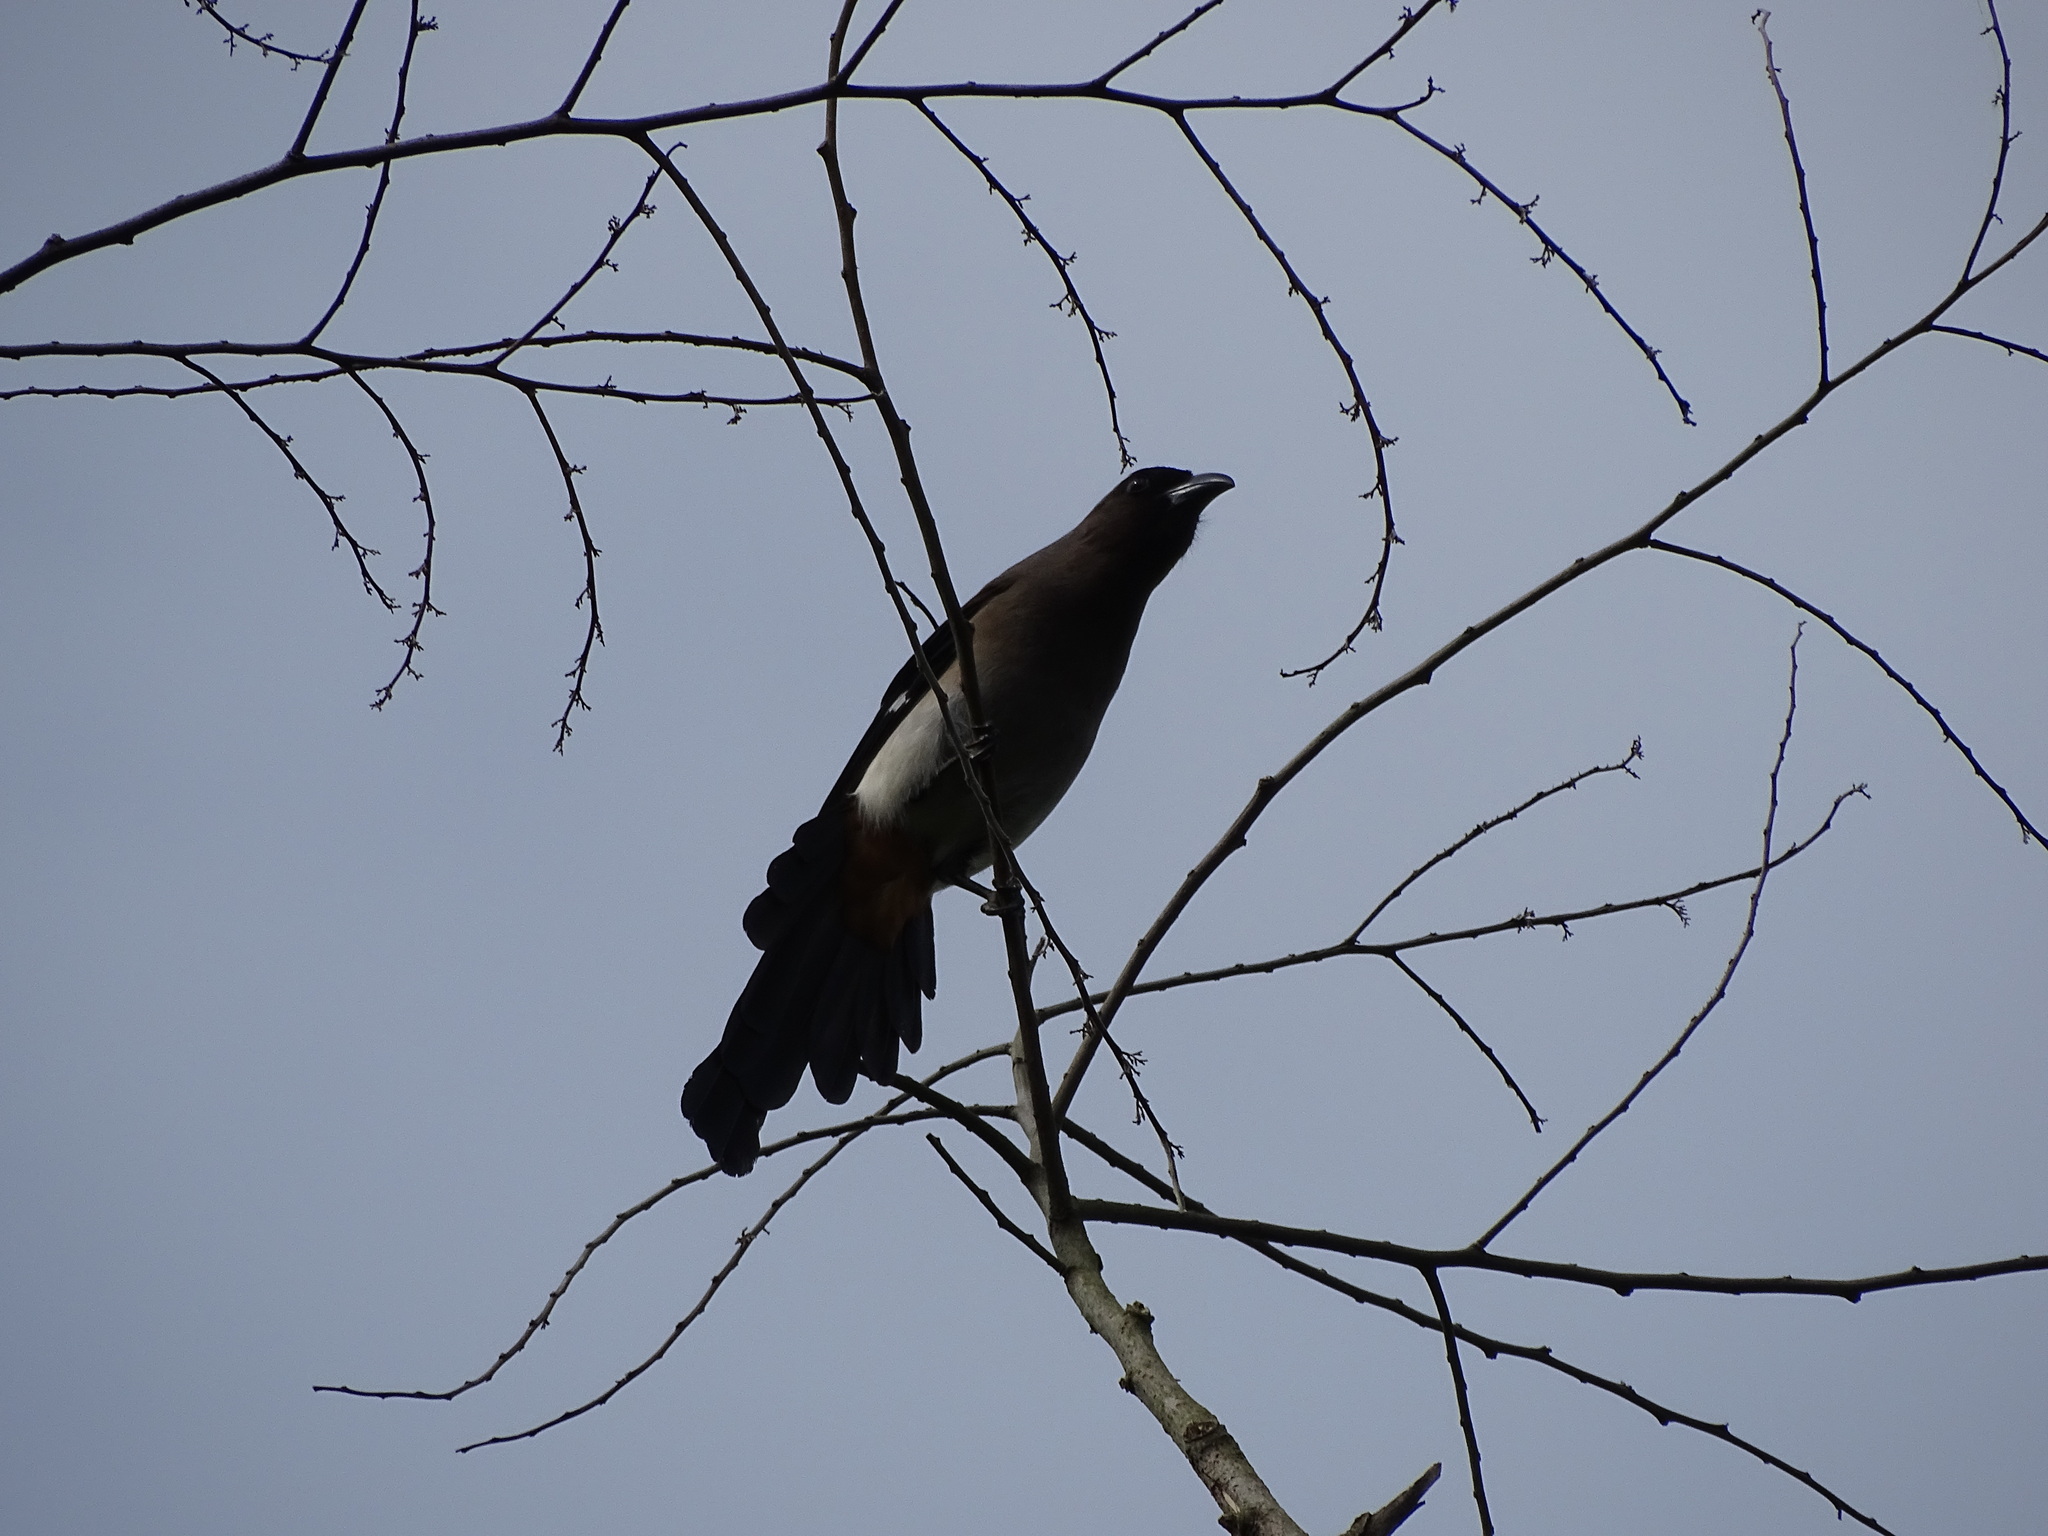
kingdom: Animalia
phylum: Chordata
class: Aves
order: Passeriformes
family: Corvidae
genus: Dendrocitta
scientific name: Dendrocitta formosae
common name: Grey treepie
